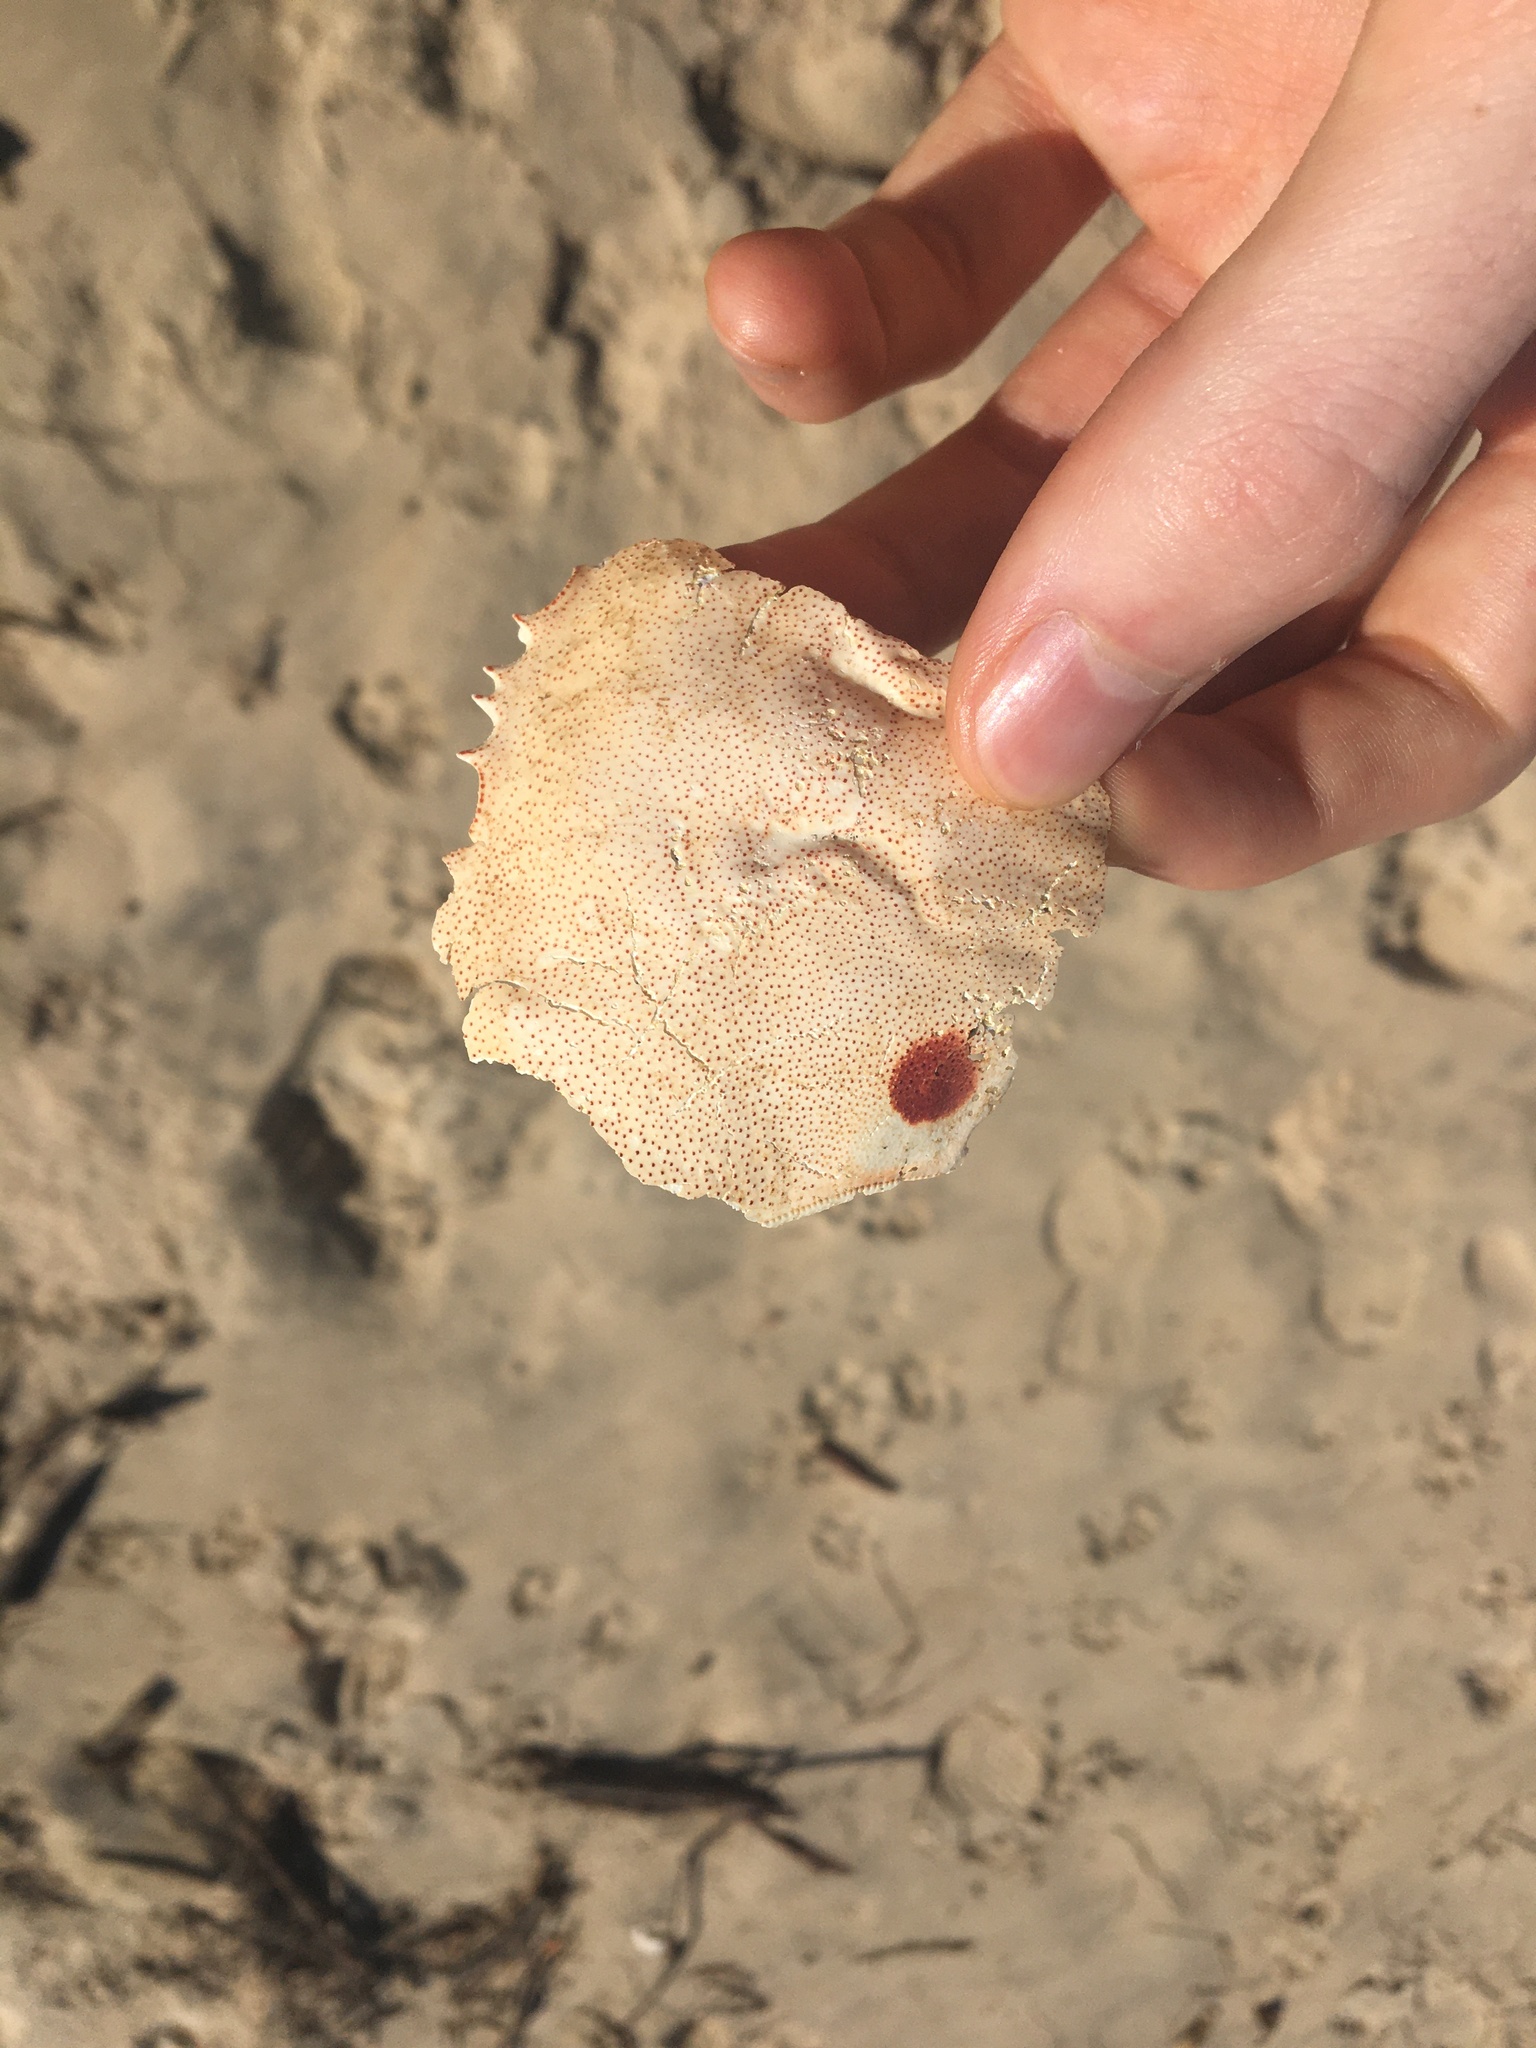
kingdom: Animalia
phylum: Arthropoda
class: Malacostraca
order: Decapoda
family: Ovalipidae
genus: Ovalipes
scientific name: Ovalipes australiensis
